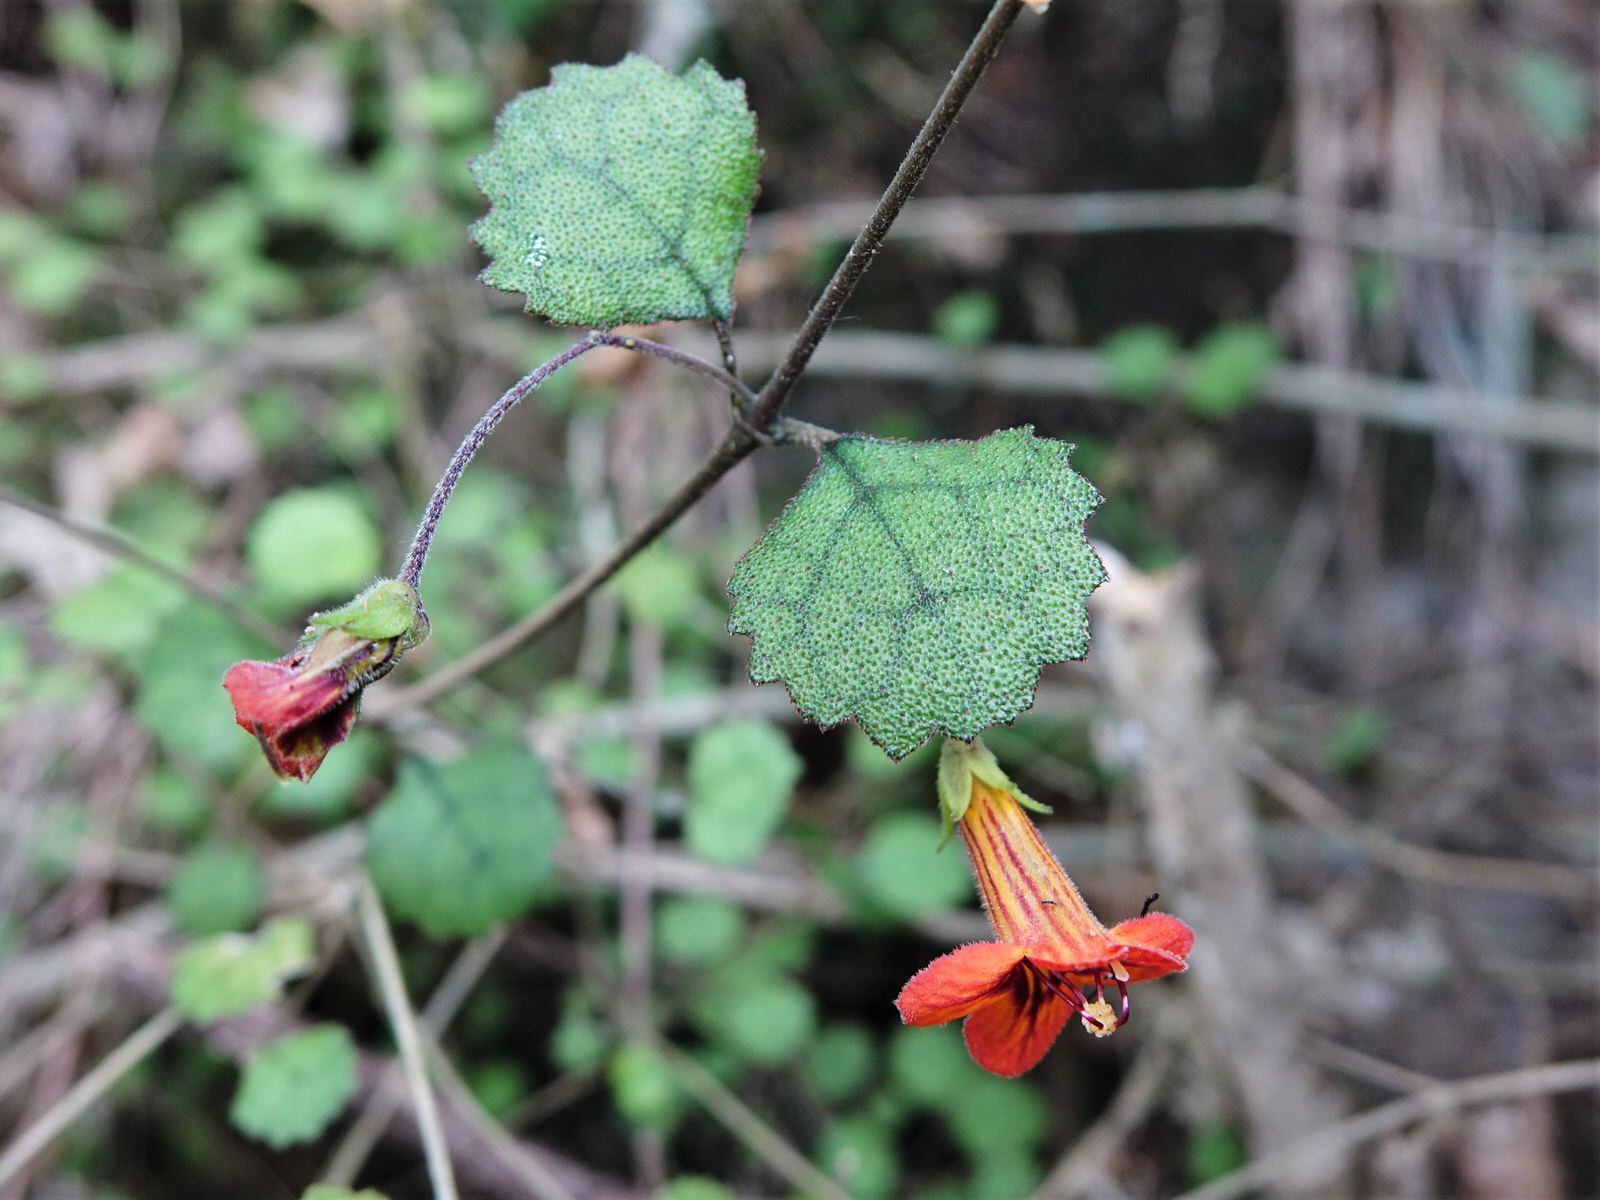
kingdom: Plantae
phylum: Tracheophyta
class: Magnoliopsida
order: Lamiales
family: Gesneriaceae
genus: Rhabdothamnus
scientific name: Rhabdothamnus solandri
